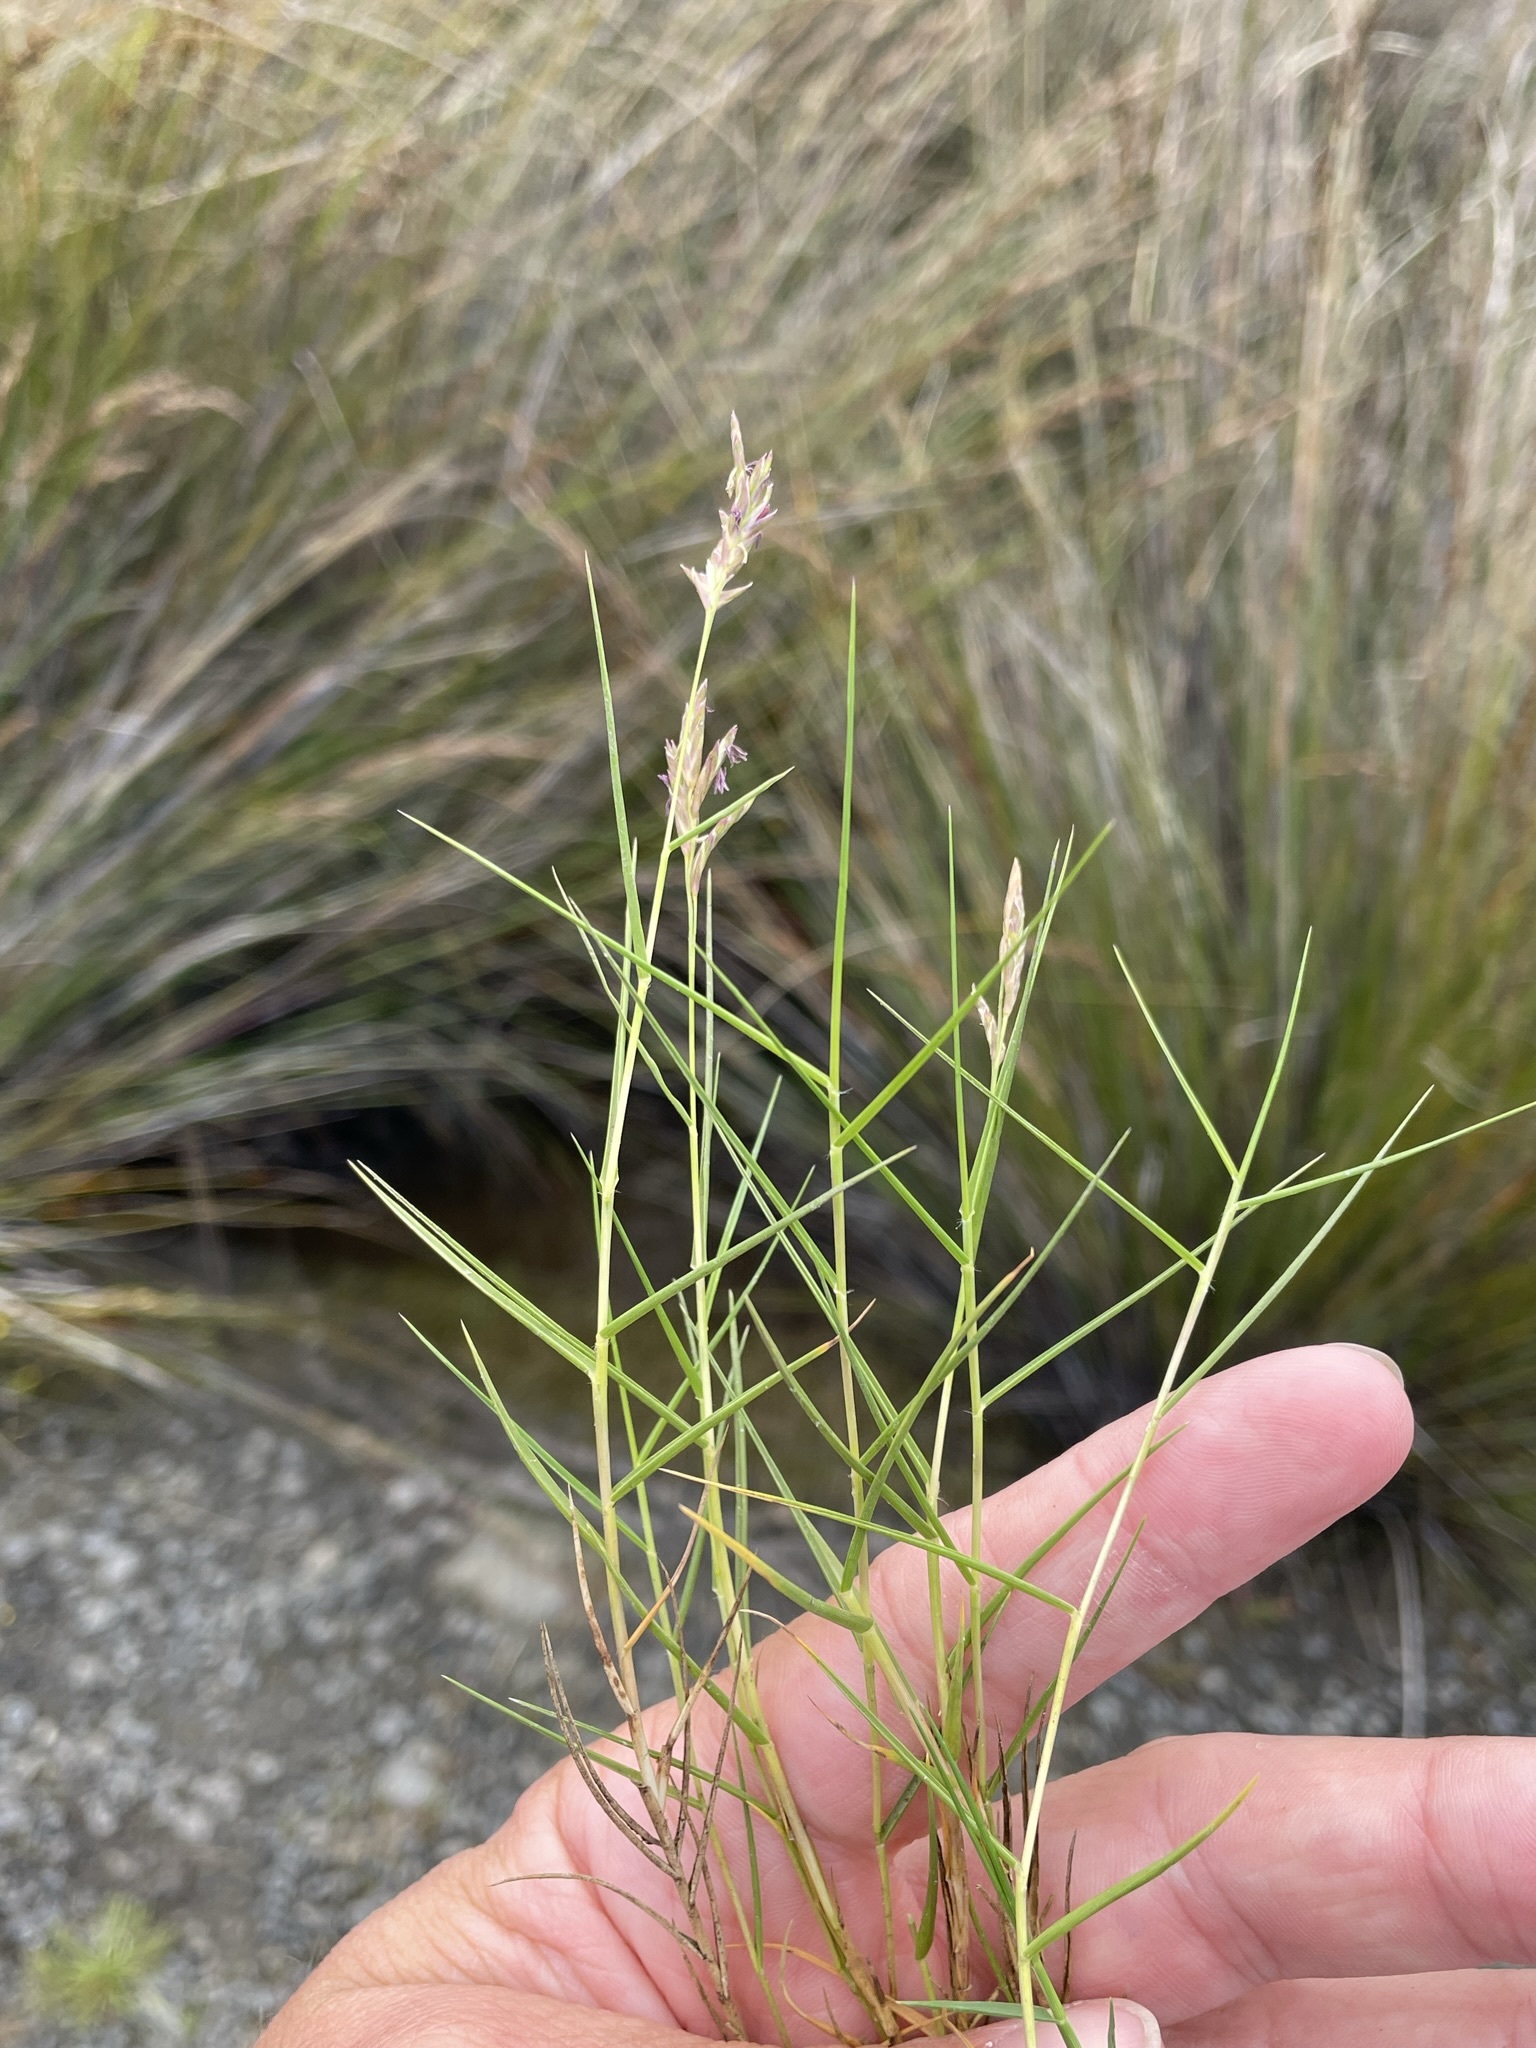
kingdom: Plantae
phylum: Tracheophyta
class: Liliopsida
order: Poales
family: Poaceae
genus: Distichlis
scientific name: Distichlis distichophylla
